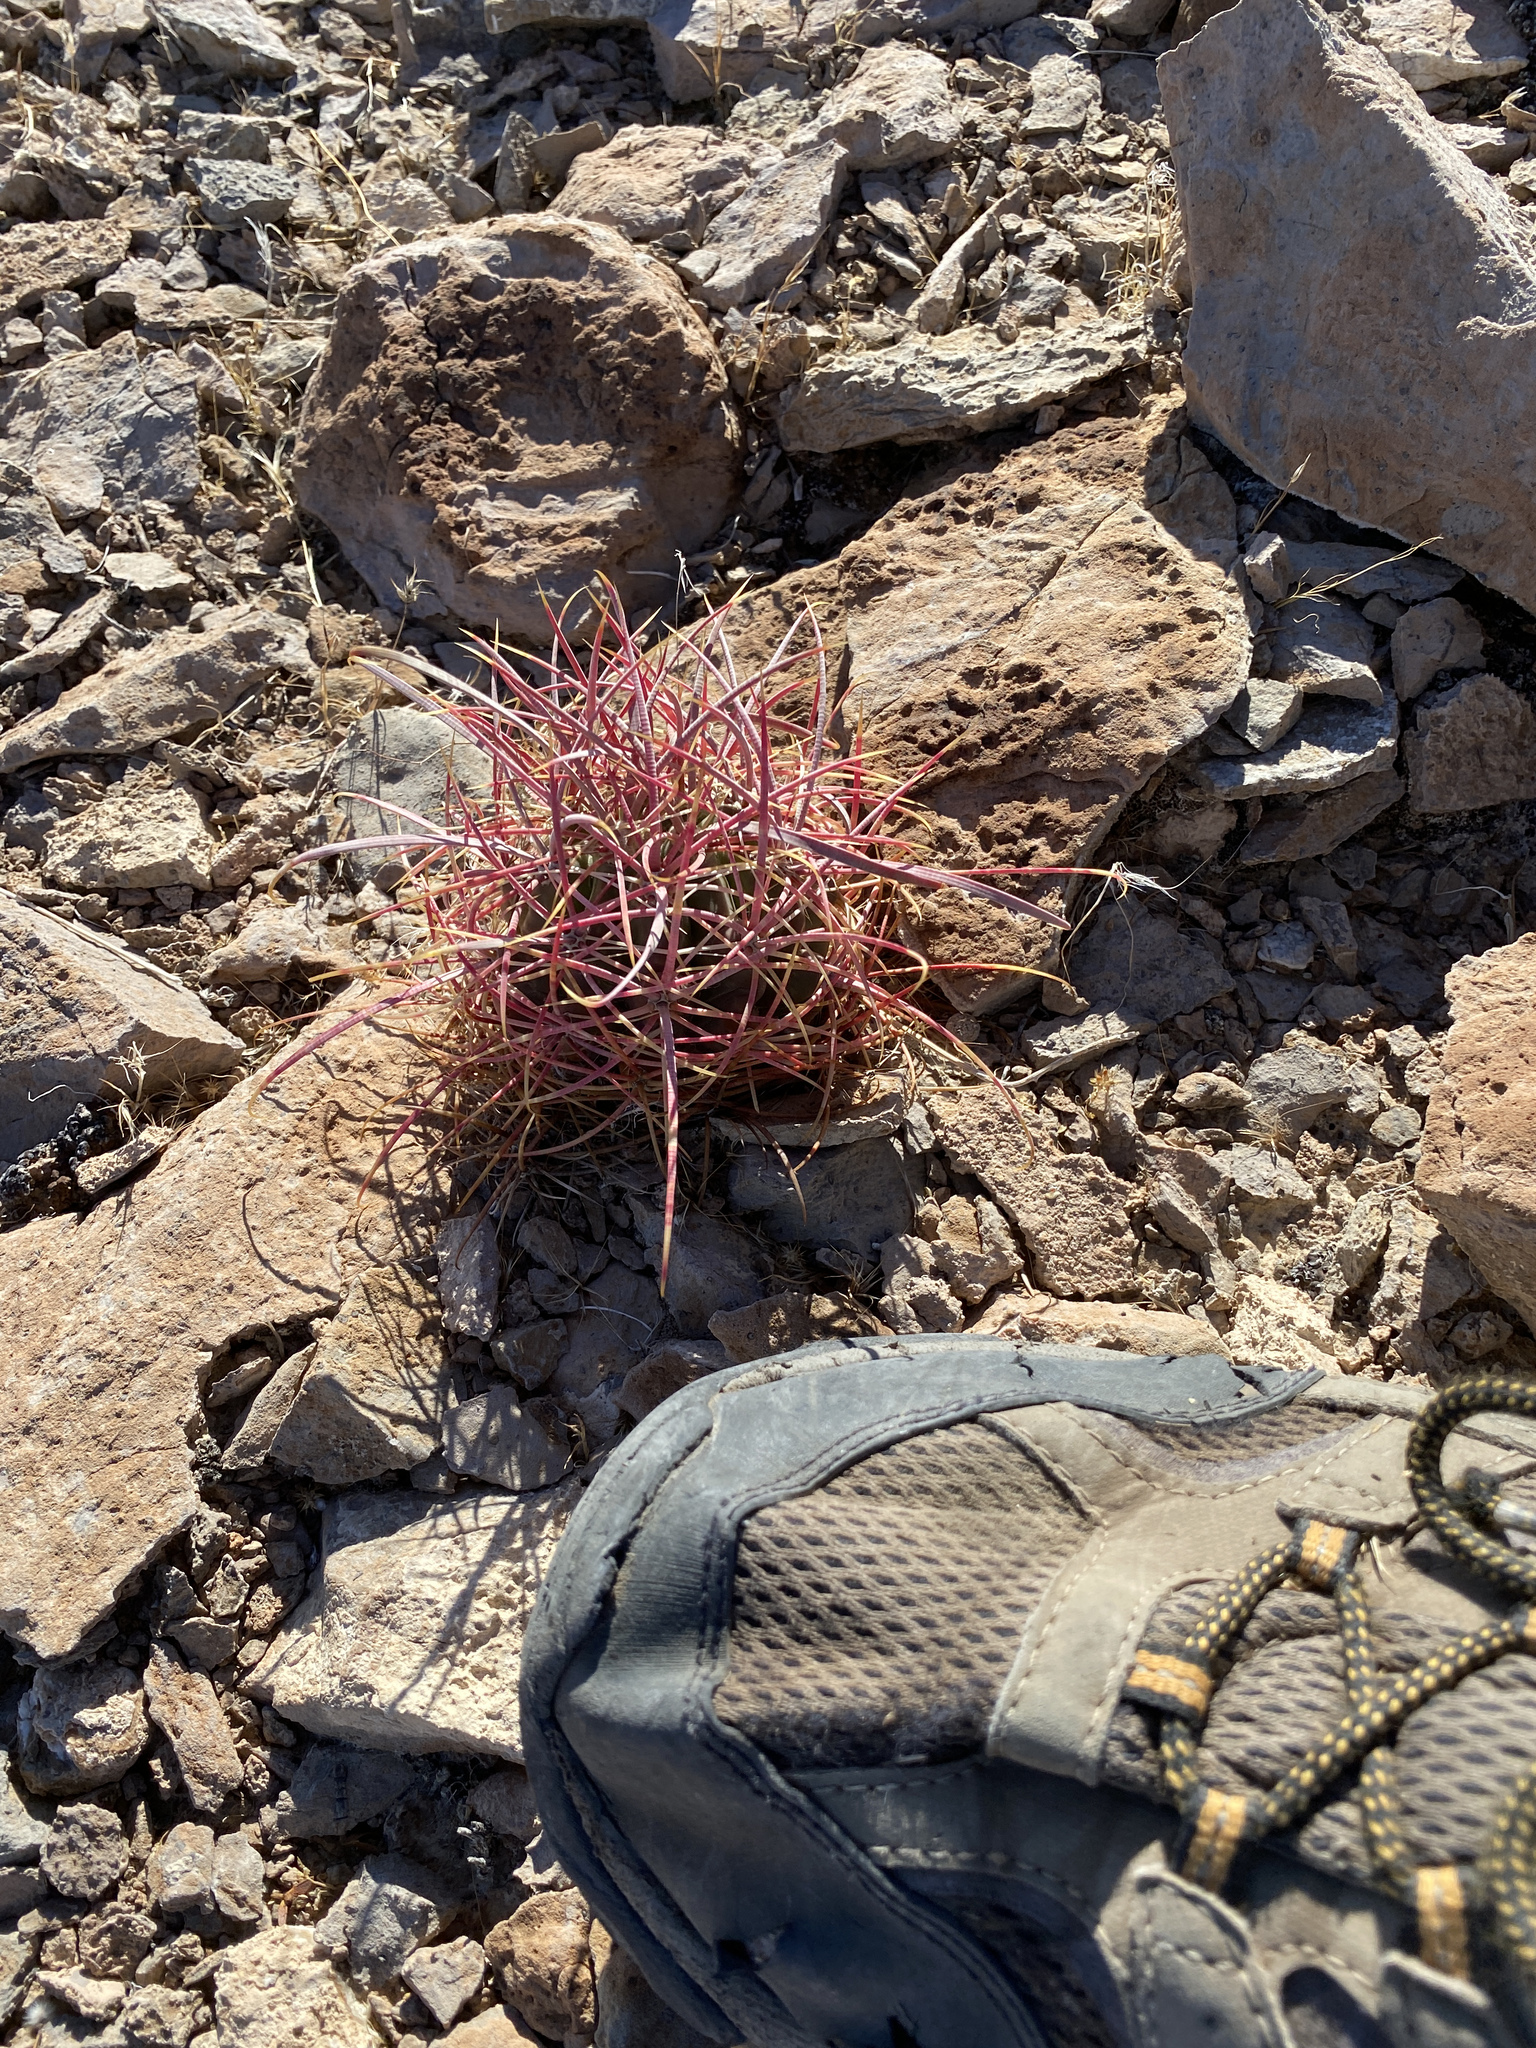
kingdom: Plantae
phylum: Tracheophyta
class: Magnoliopsida
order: Caryophyllales
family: Cactaceae
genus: Ferocactus
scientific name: Ferocactus cylindraceus
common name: California barrel cactus
